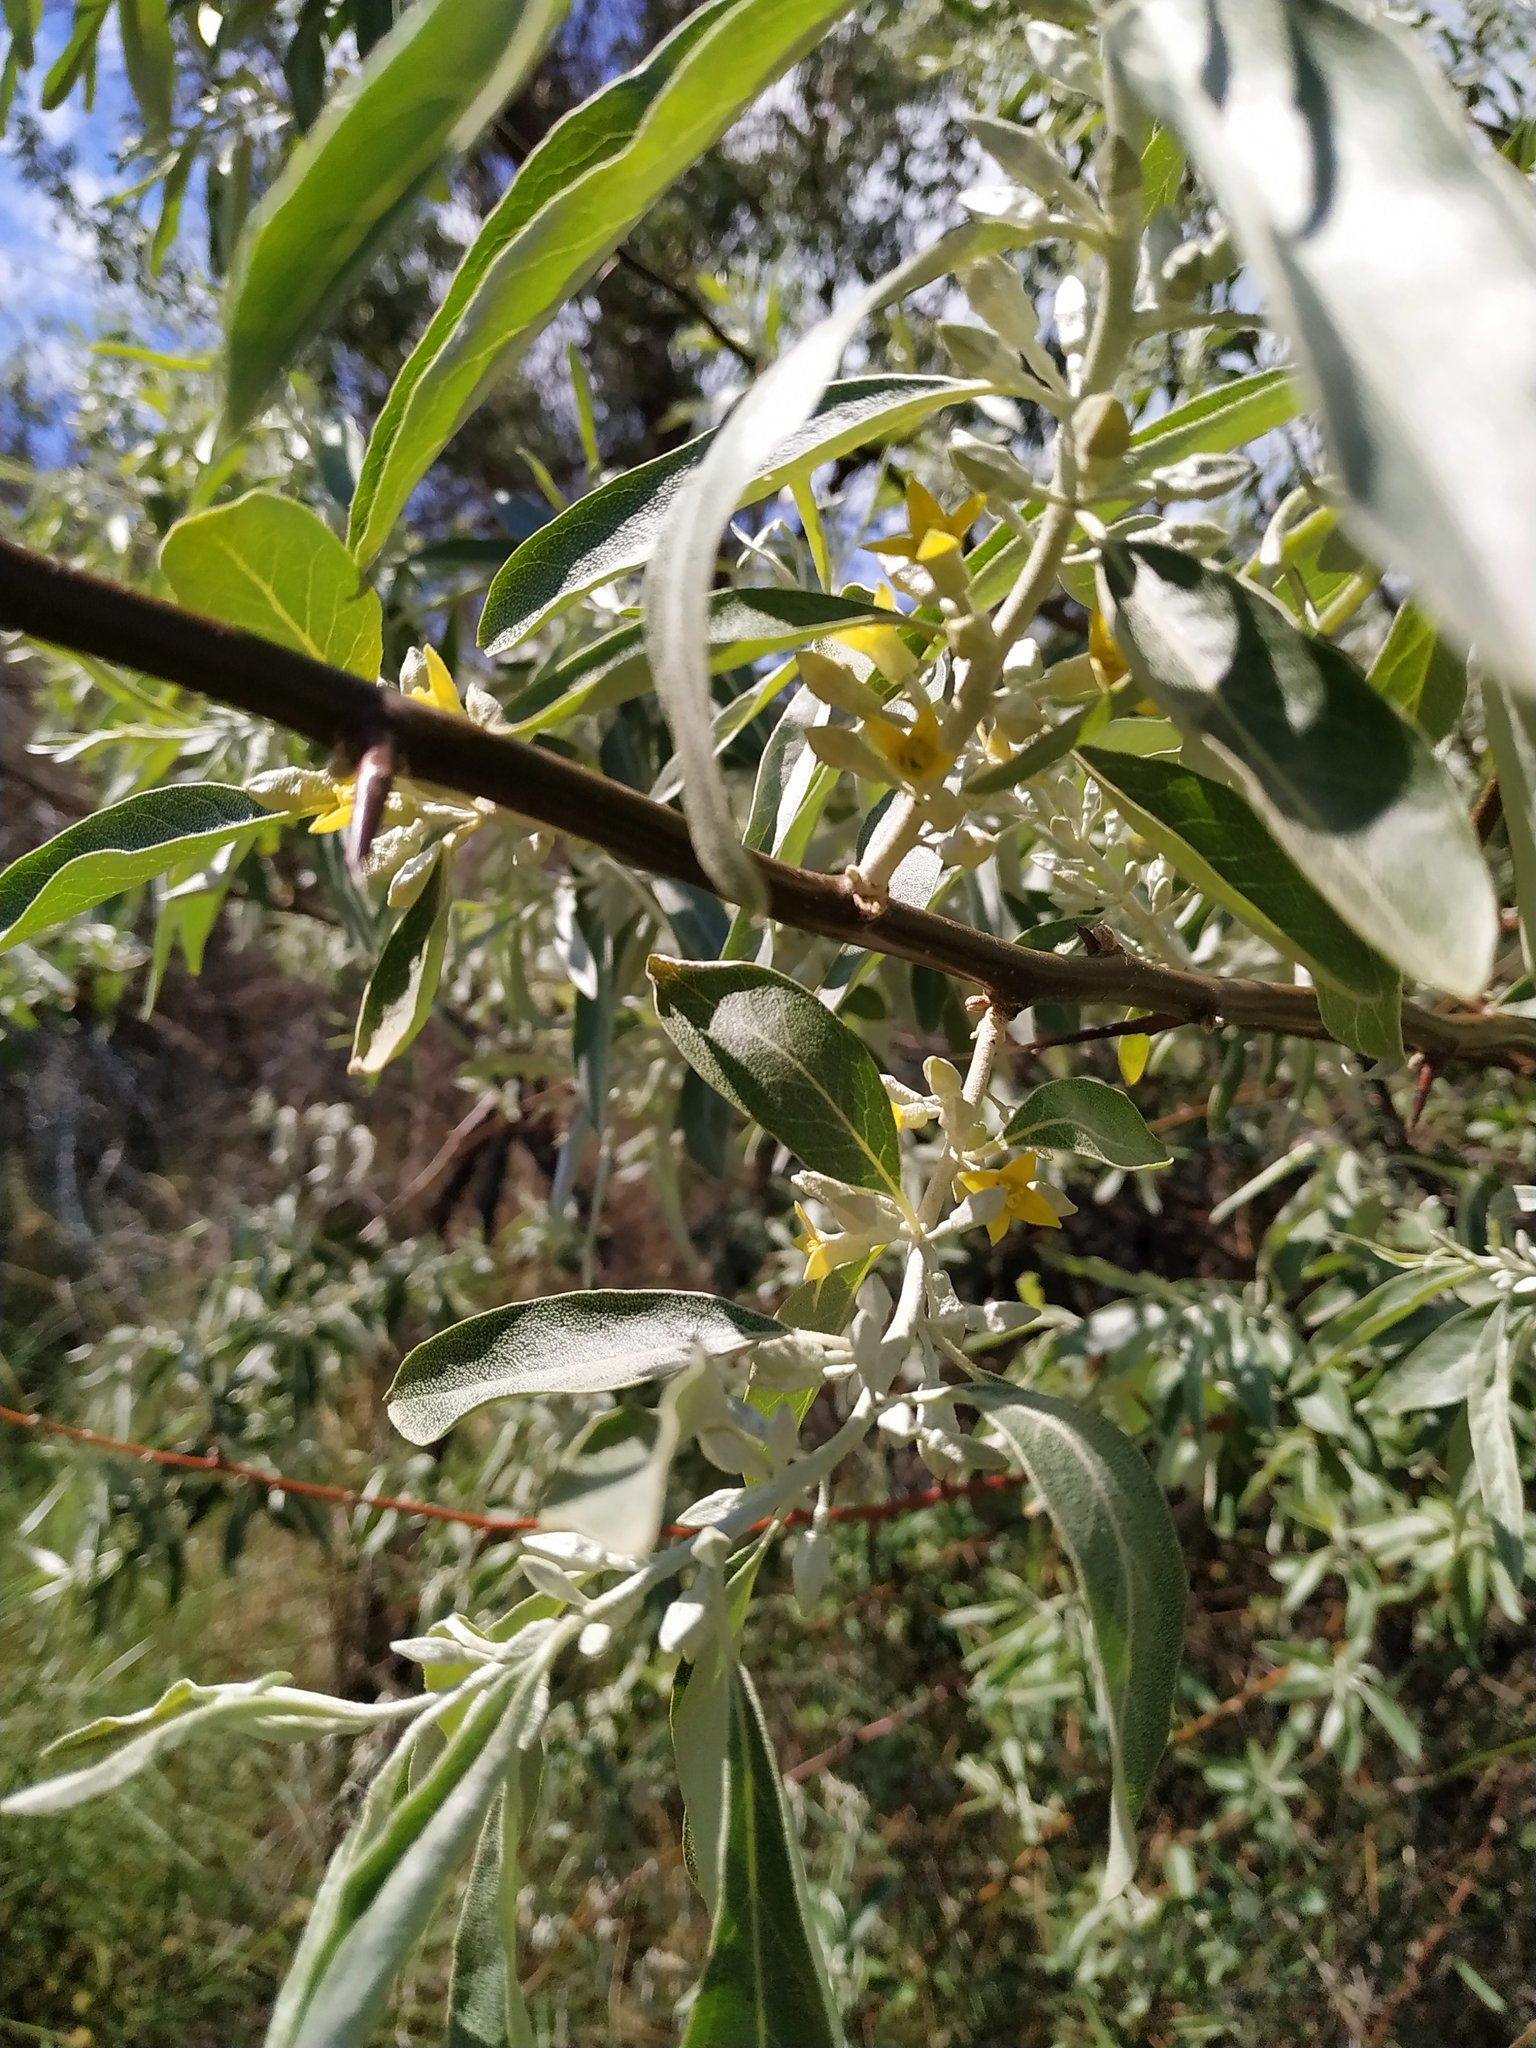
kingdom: Plantae
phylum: Tracheophyta
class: Magnoliopsida
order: Rosales
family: Elaeagnaceae
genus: Elaeagnus
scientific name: Elaeagnus angustifolia
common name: Russian olive
